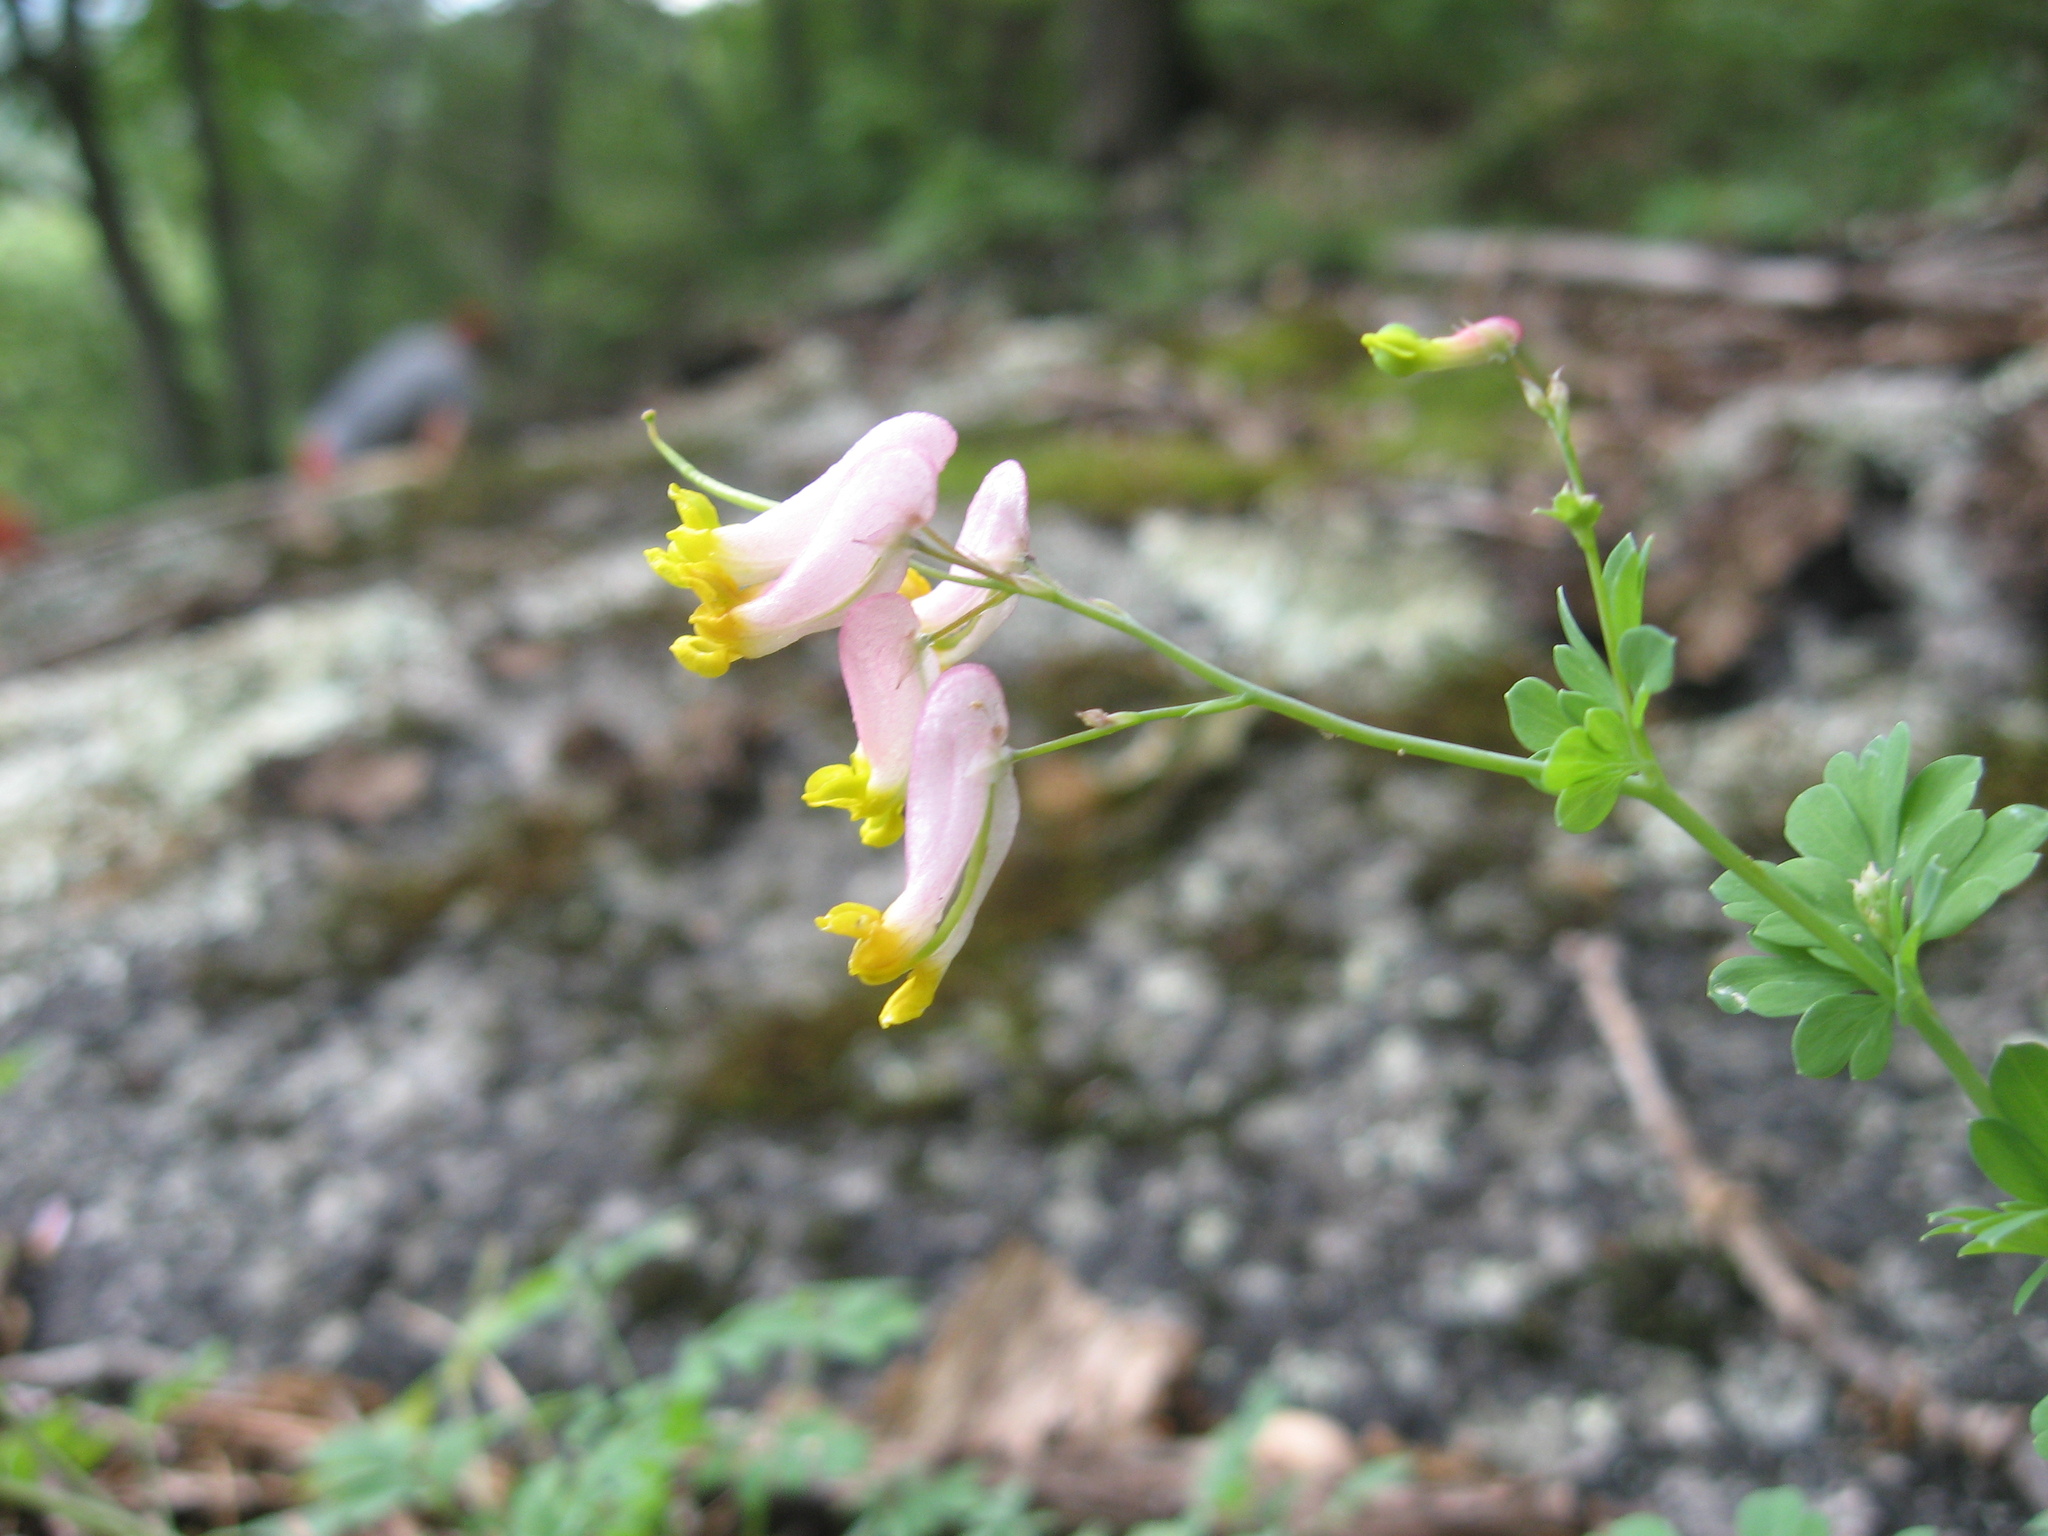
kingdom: Plantae
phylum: Tracheophyta
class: Magnoliopsida
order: Ranunculales
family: Papaveraceae
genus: Capnoides
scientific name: Capnoides sempervirens
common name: Rock harlequin
